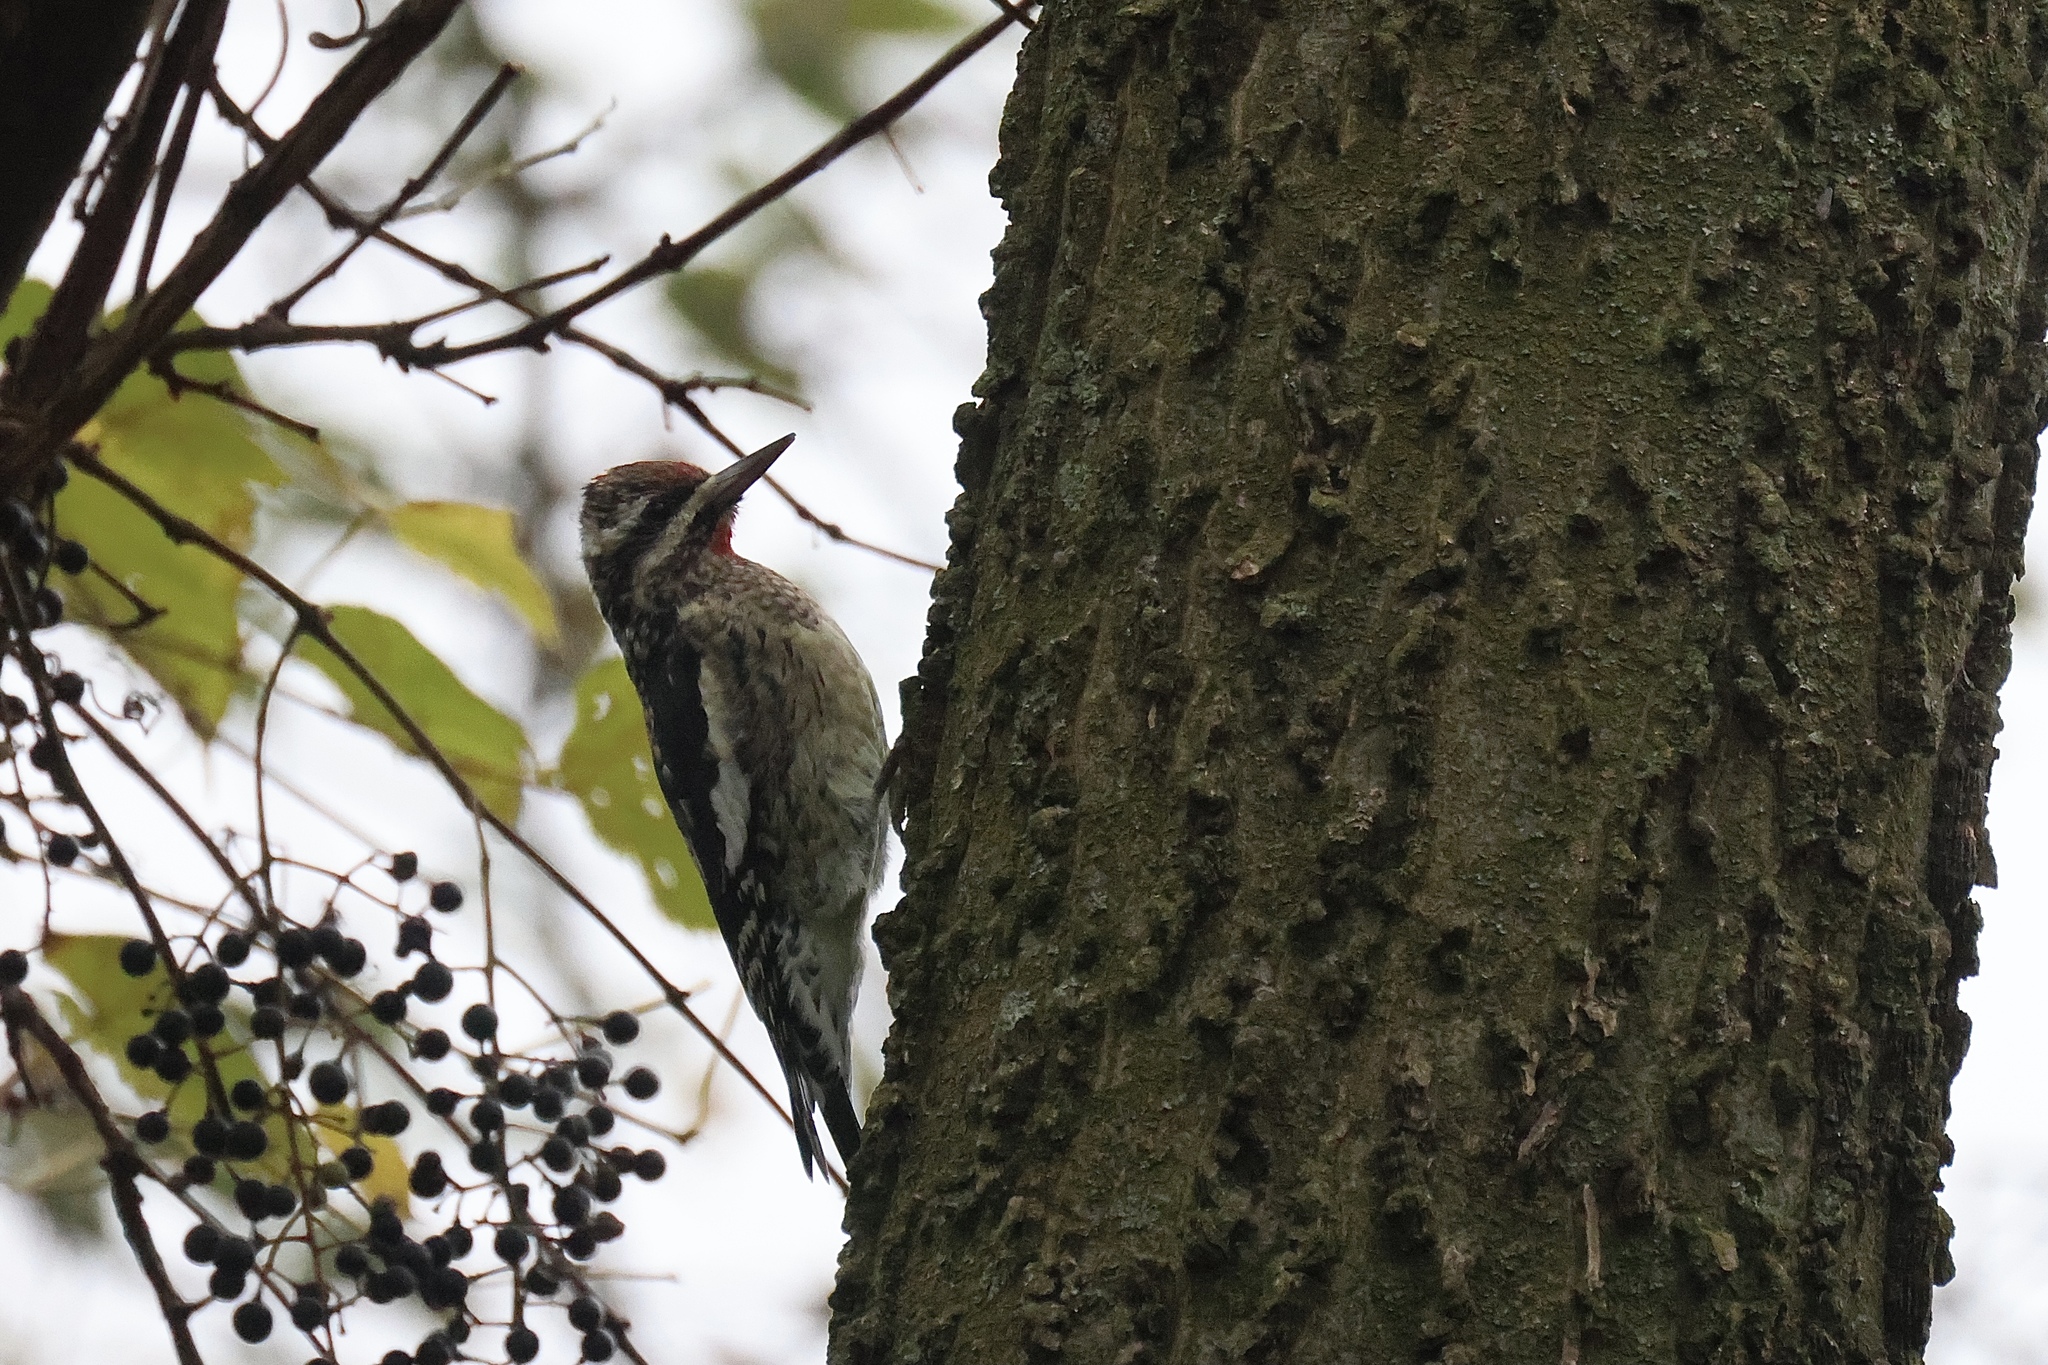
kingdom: Animalia
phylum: Chordata
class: Aves
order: Piciformes
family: Picidae
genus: Sphyrapicus
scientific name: Sphyrapicus varius
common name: Yellow-bellied sapsucker
